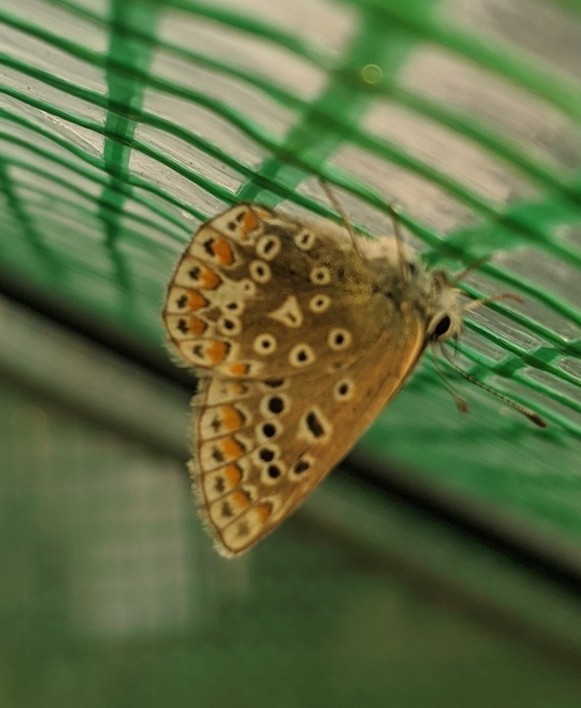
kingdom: Animalia
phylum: Arthropoda
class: Insecta
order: Lepidoptera
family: Lycaenidae
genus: Polyommatus
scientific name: Polyommatus icarus
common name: Common blue
